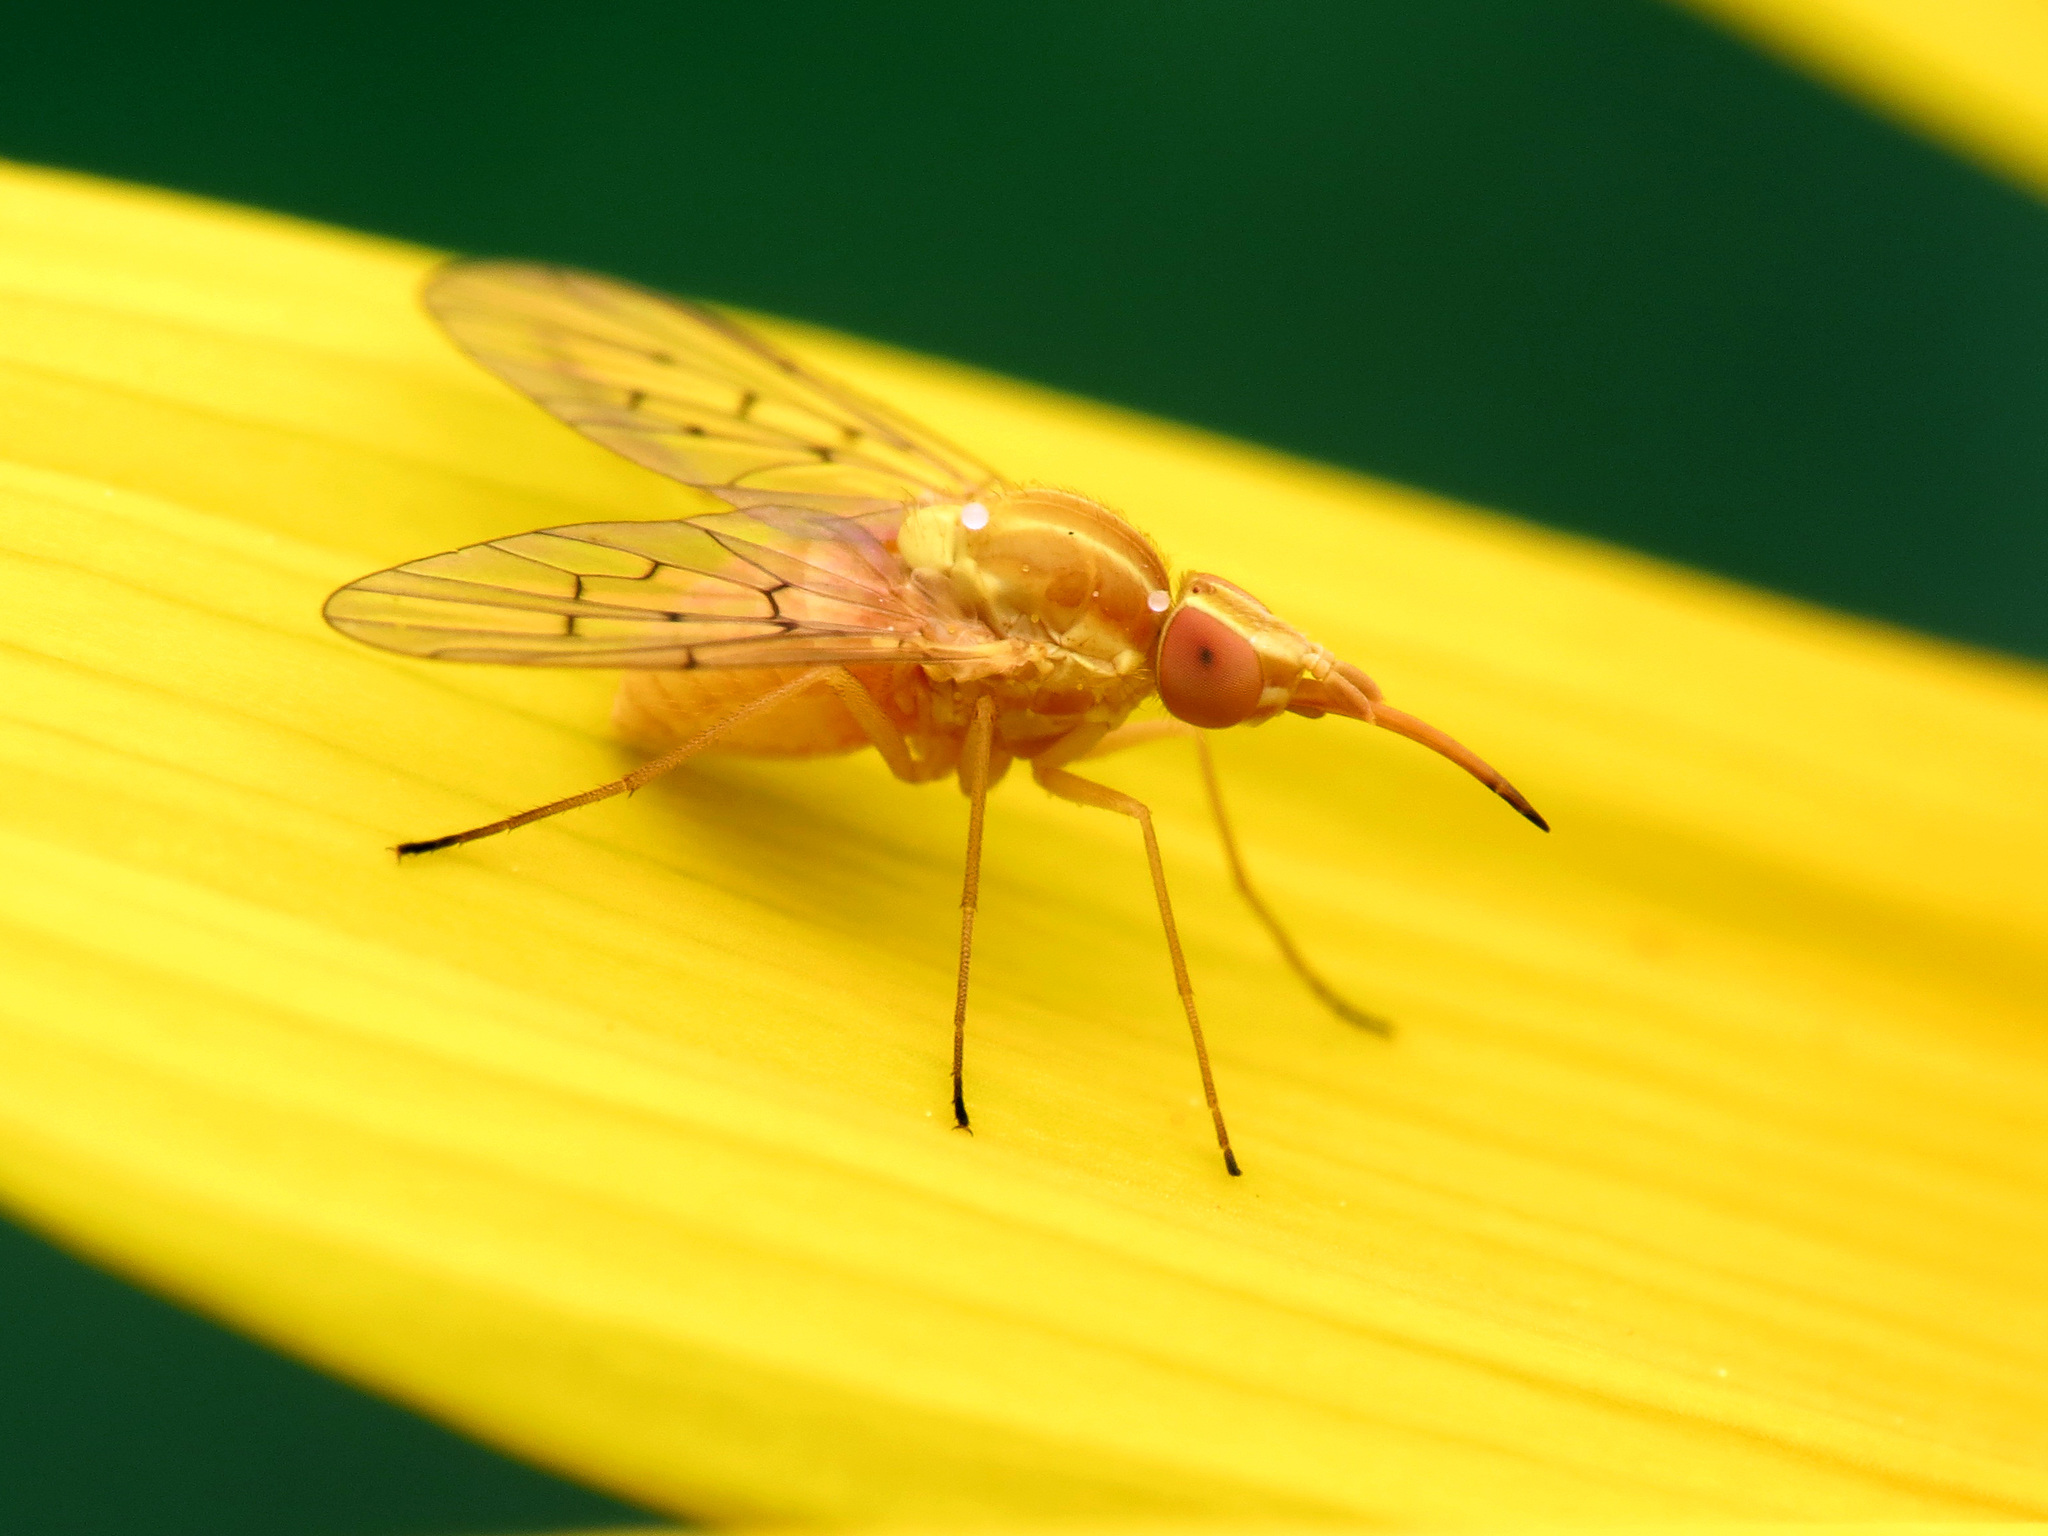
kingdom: Animalia
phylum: Arthropoda
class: Insecta
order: Diptera
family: Bombyliidae
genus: Poecilognathus
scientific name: Poecilognathus unimaculatus
